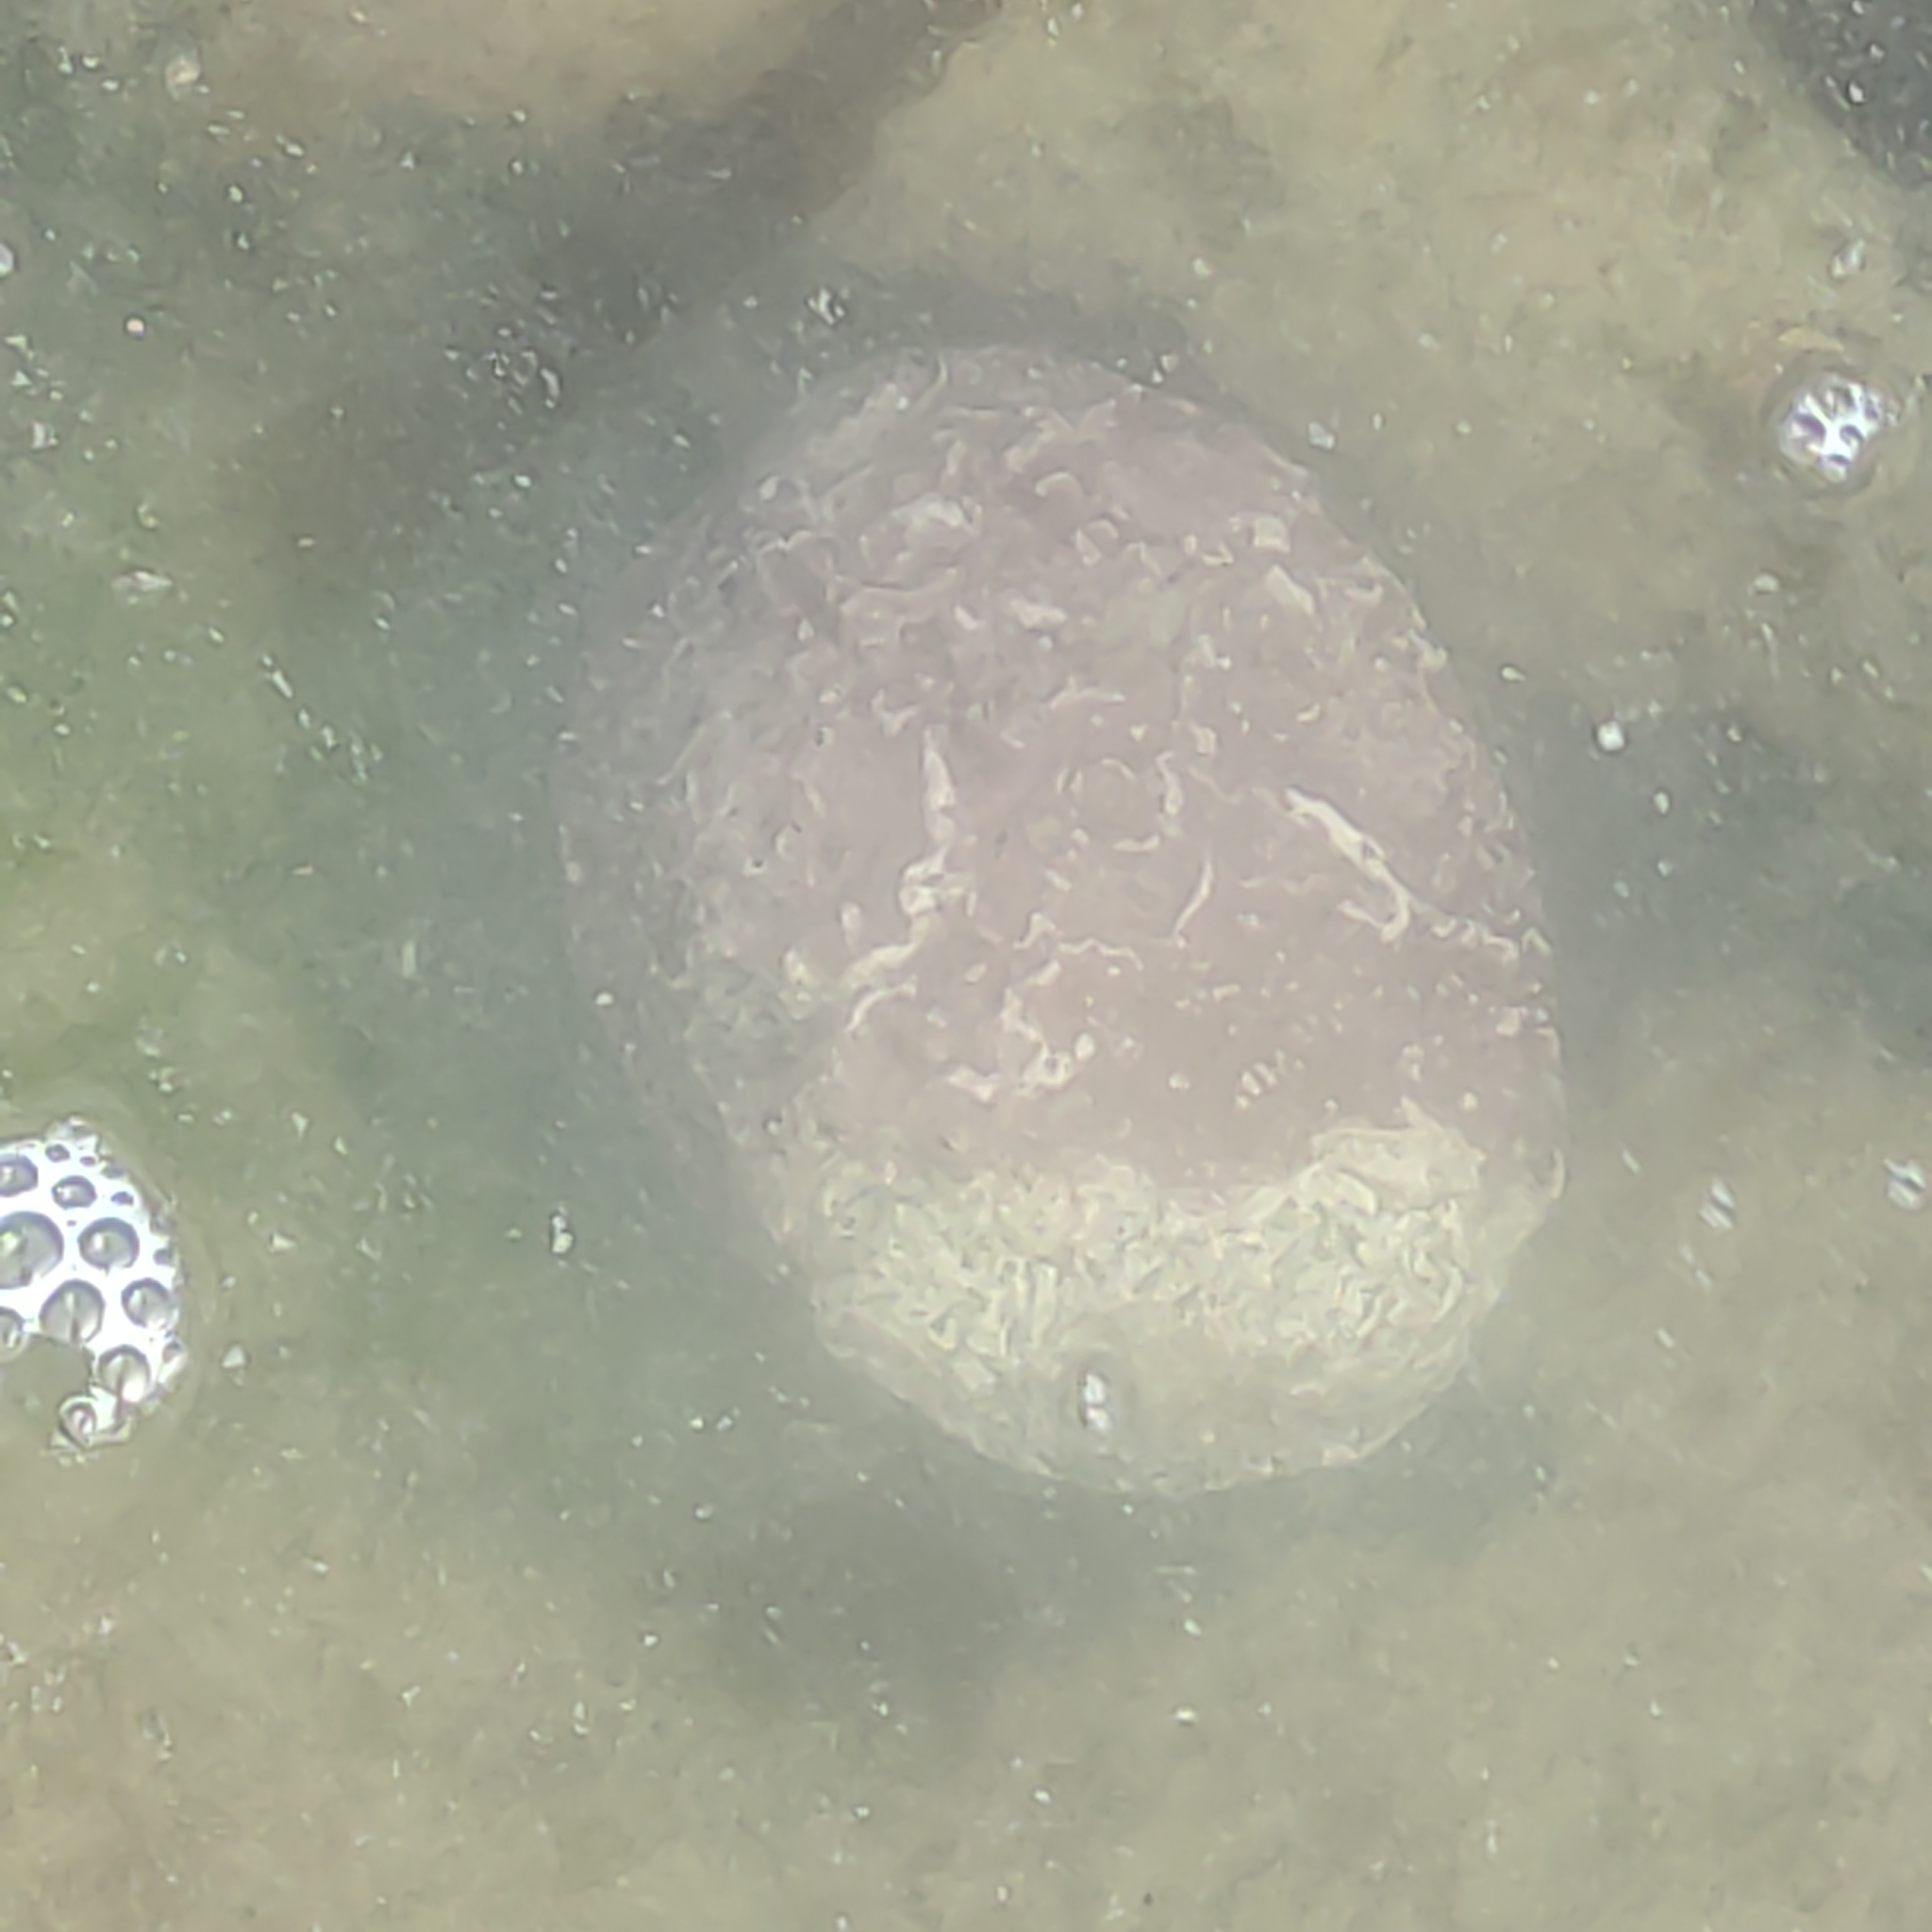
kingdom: Animalia
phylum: Mollusca
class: Gastropoda
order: Lepetellida
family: Haliotidae
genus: Haliotis
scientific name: Haliotis iris
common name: Abalone
